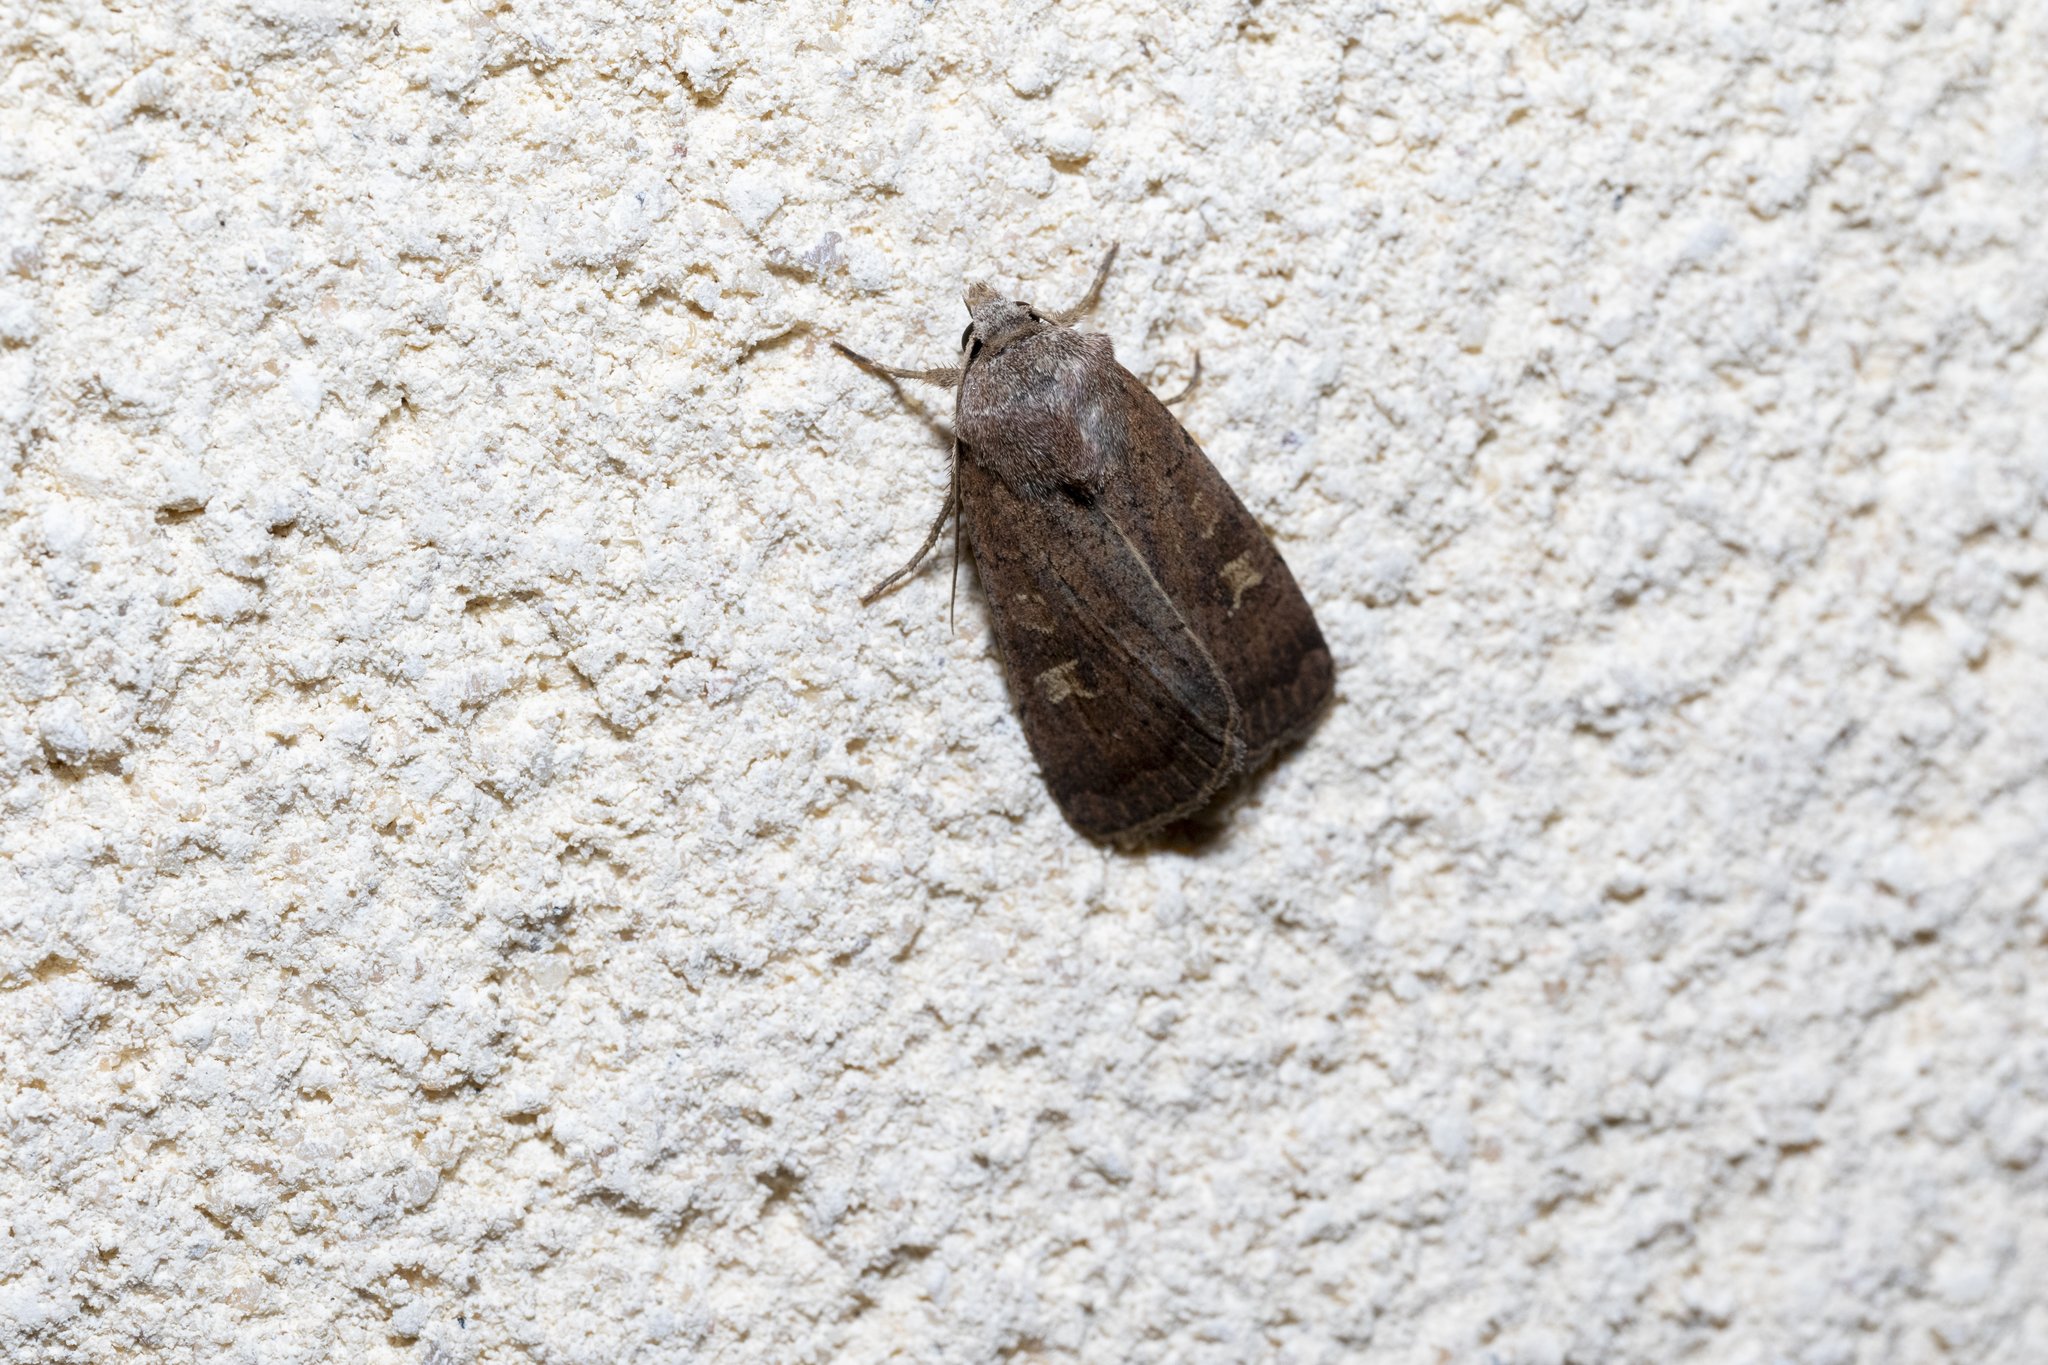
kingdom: Animalia
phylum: Arthropoda
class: Insecta
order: Lepidoptera
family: Noctuidae
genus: Xestia
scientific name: Xestia xanthographa
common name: Square-spot rustic
